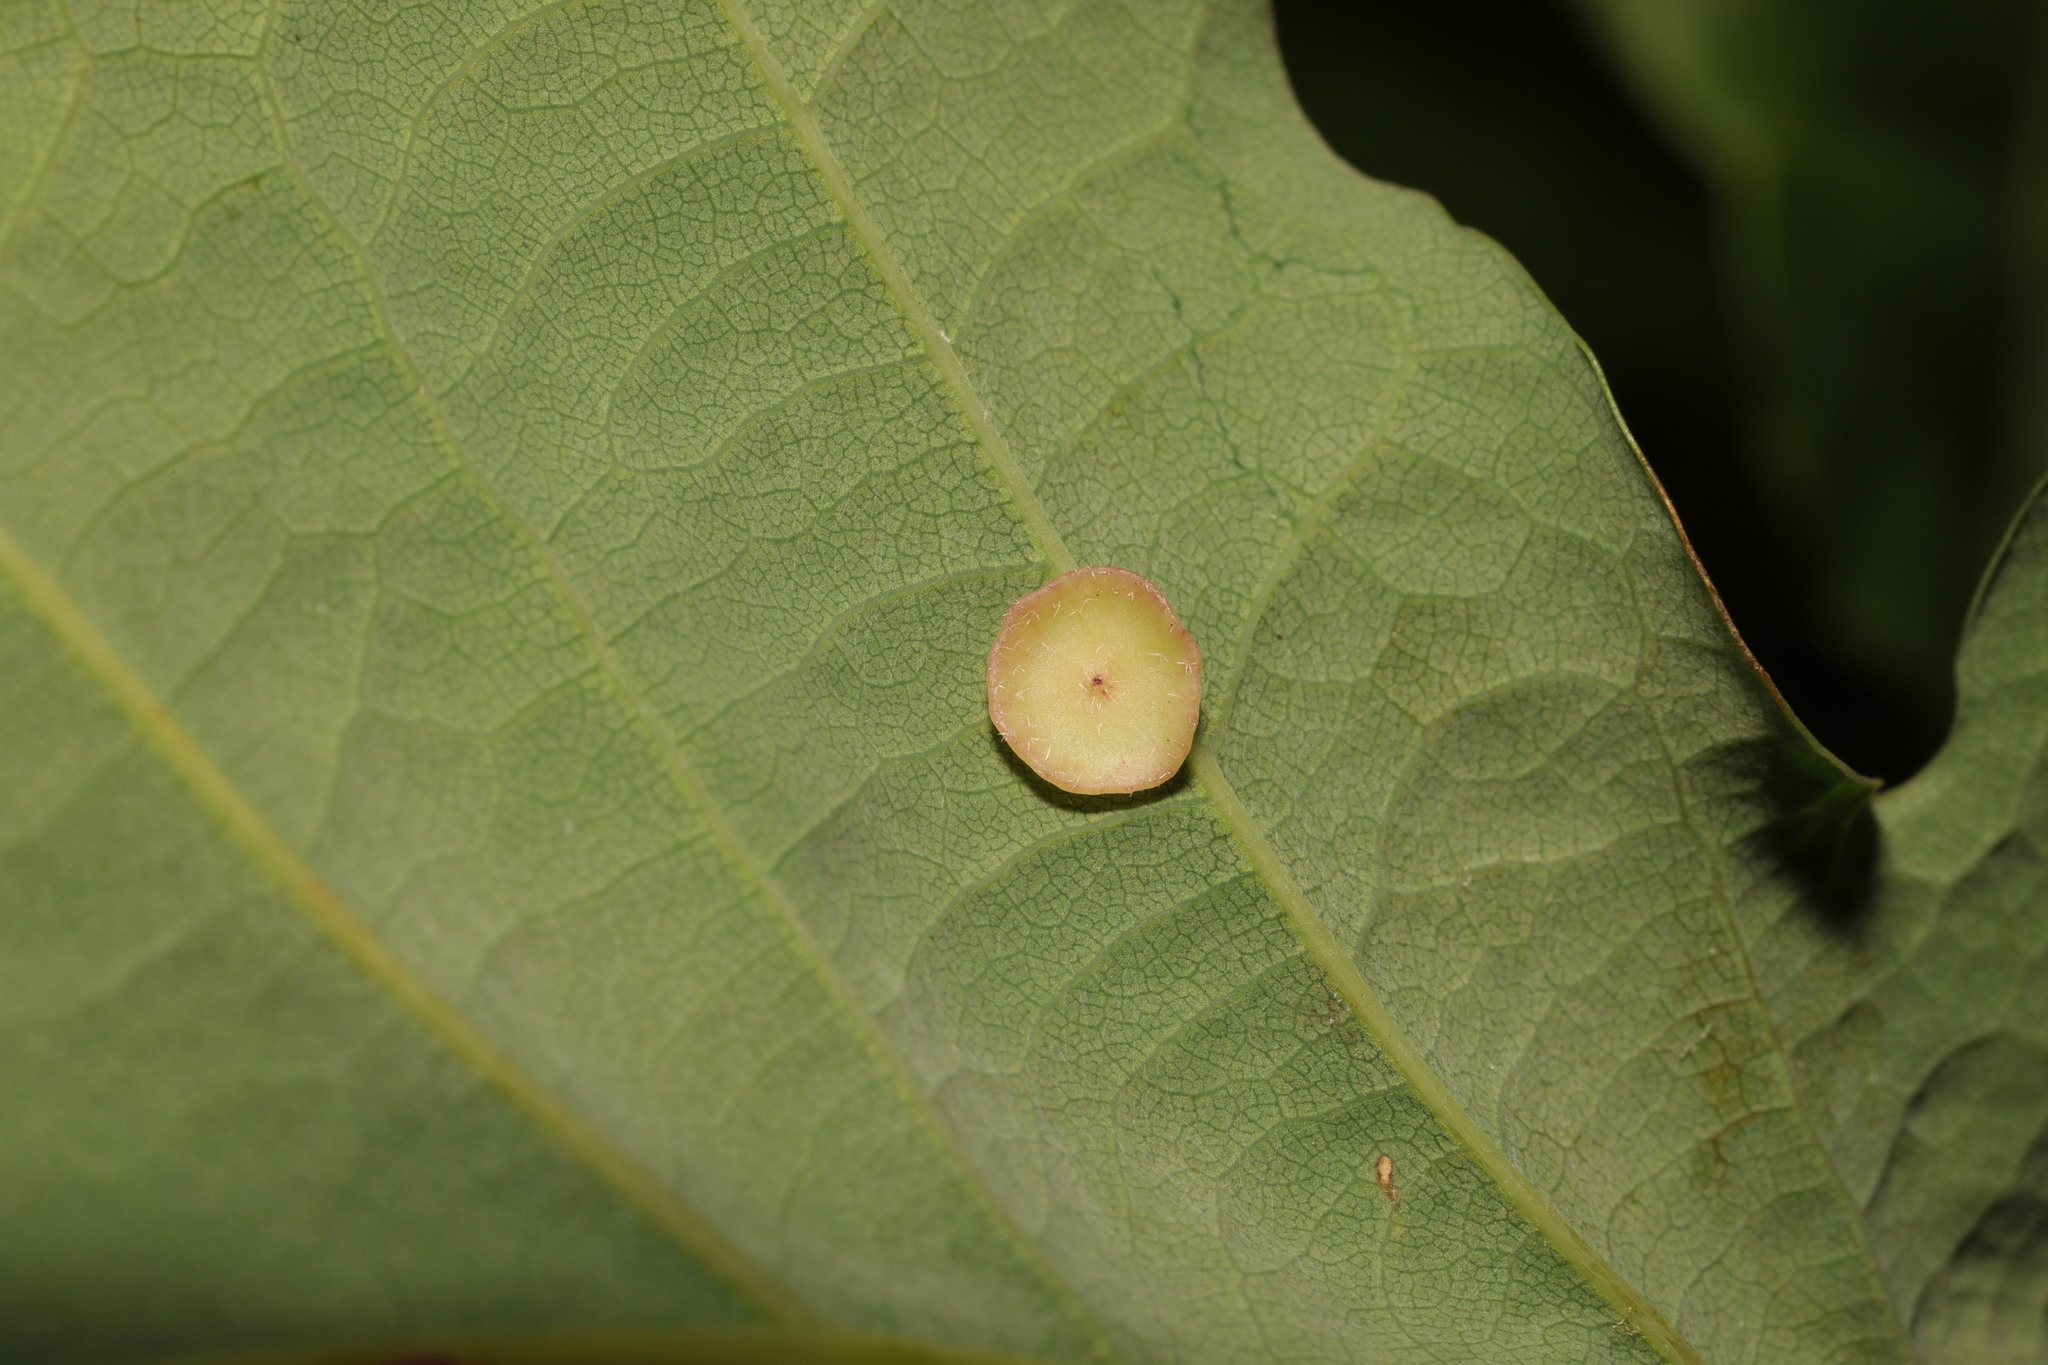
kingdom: Plantae
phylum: Tracheophyta
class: Magnoliopsida
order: Rosales
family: Rosaceae
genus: Rubus
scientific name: Rubus rufescens
